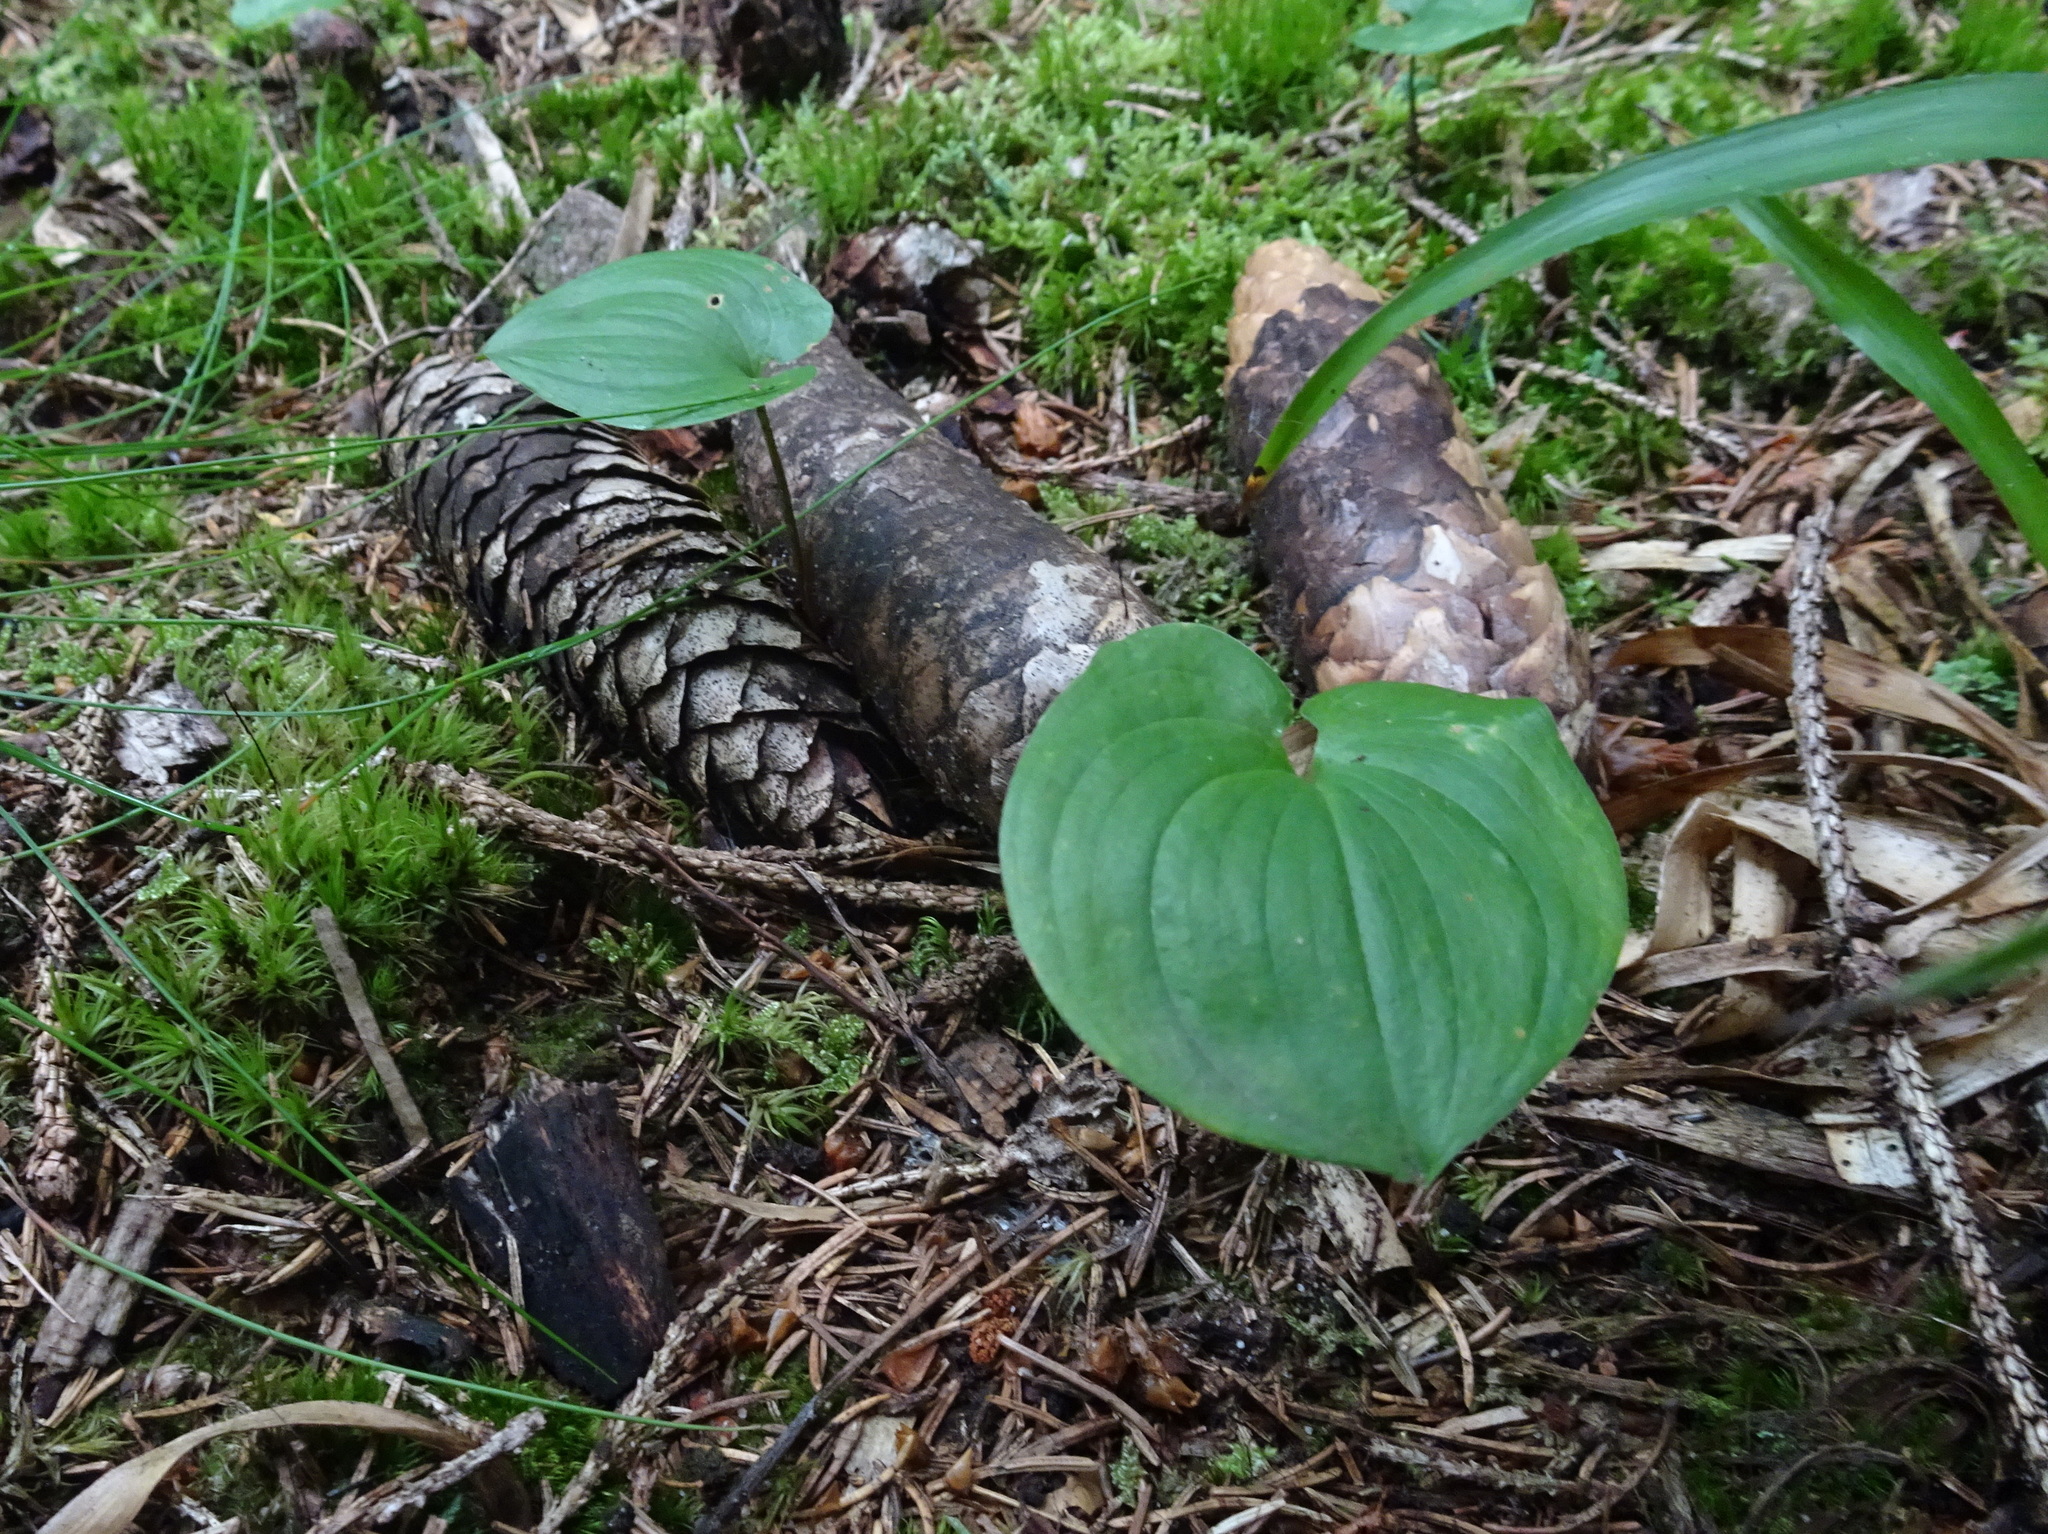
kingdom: Plantae
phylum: Tracheophyta
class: Liliopsida
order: Asparagales
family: Asparagaceae
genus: Maianthemum
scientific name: Maianthemum bifolium
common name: May lily
